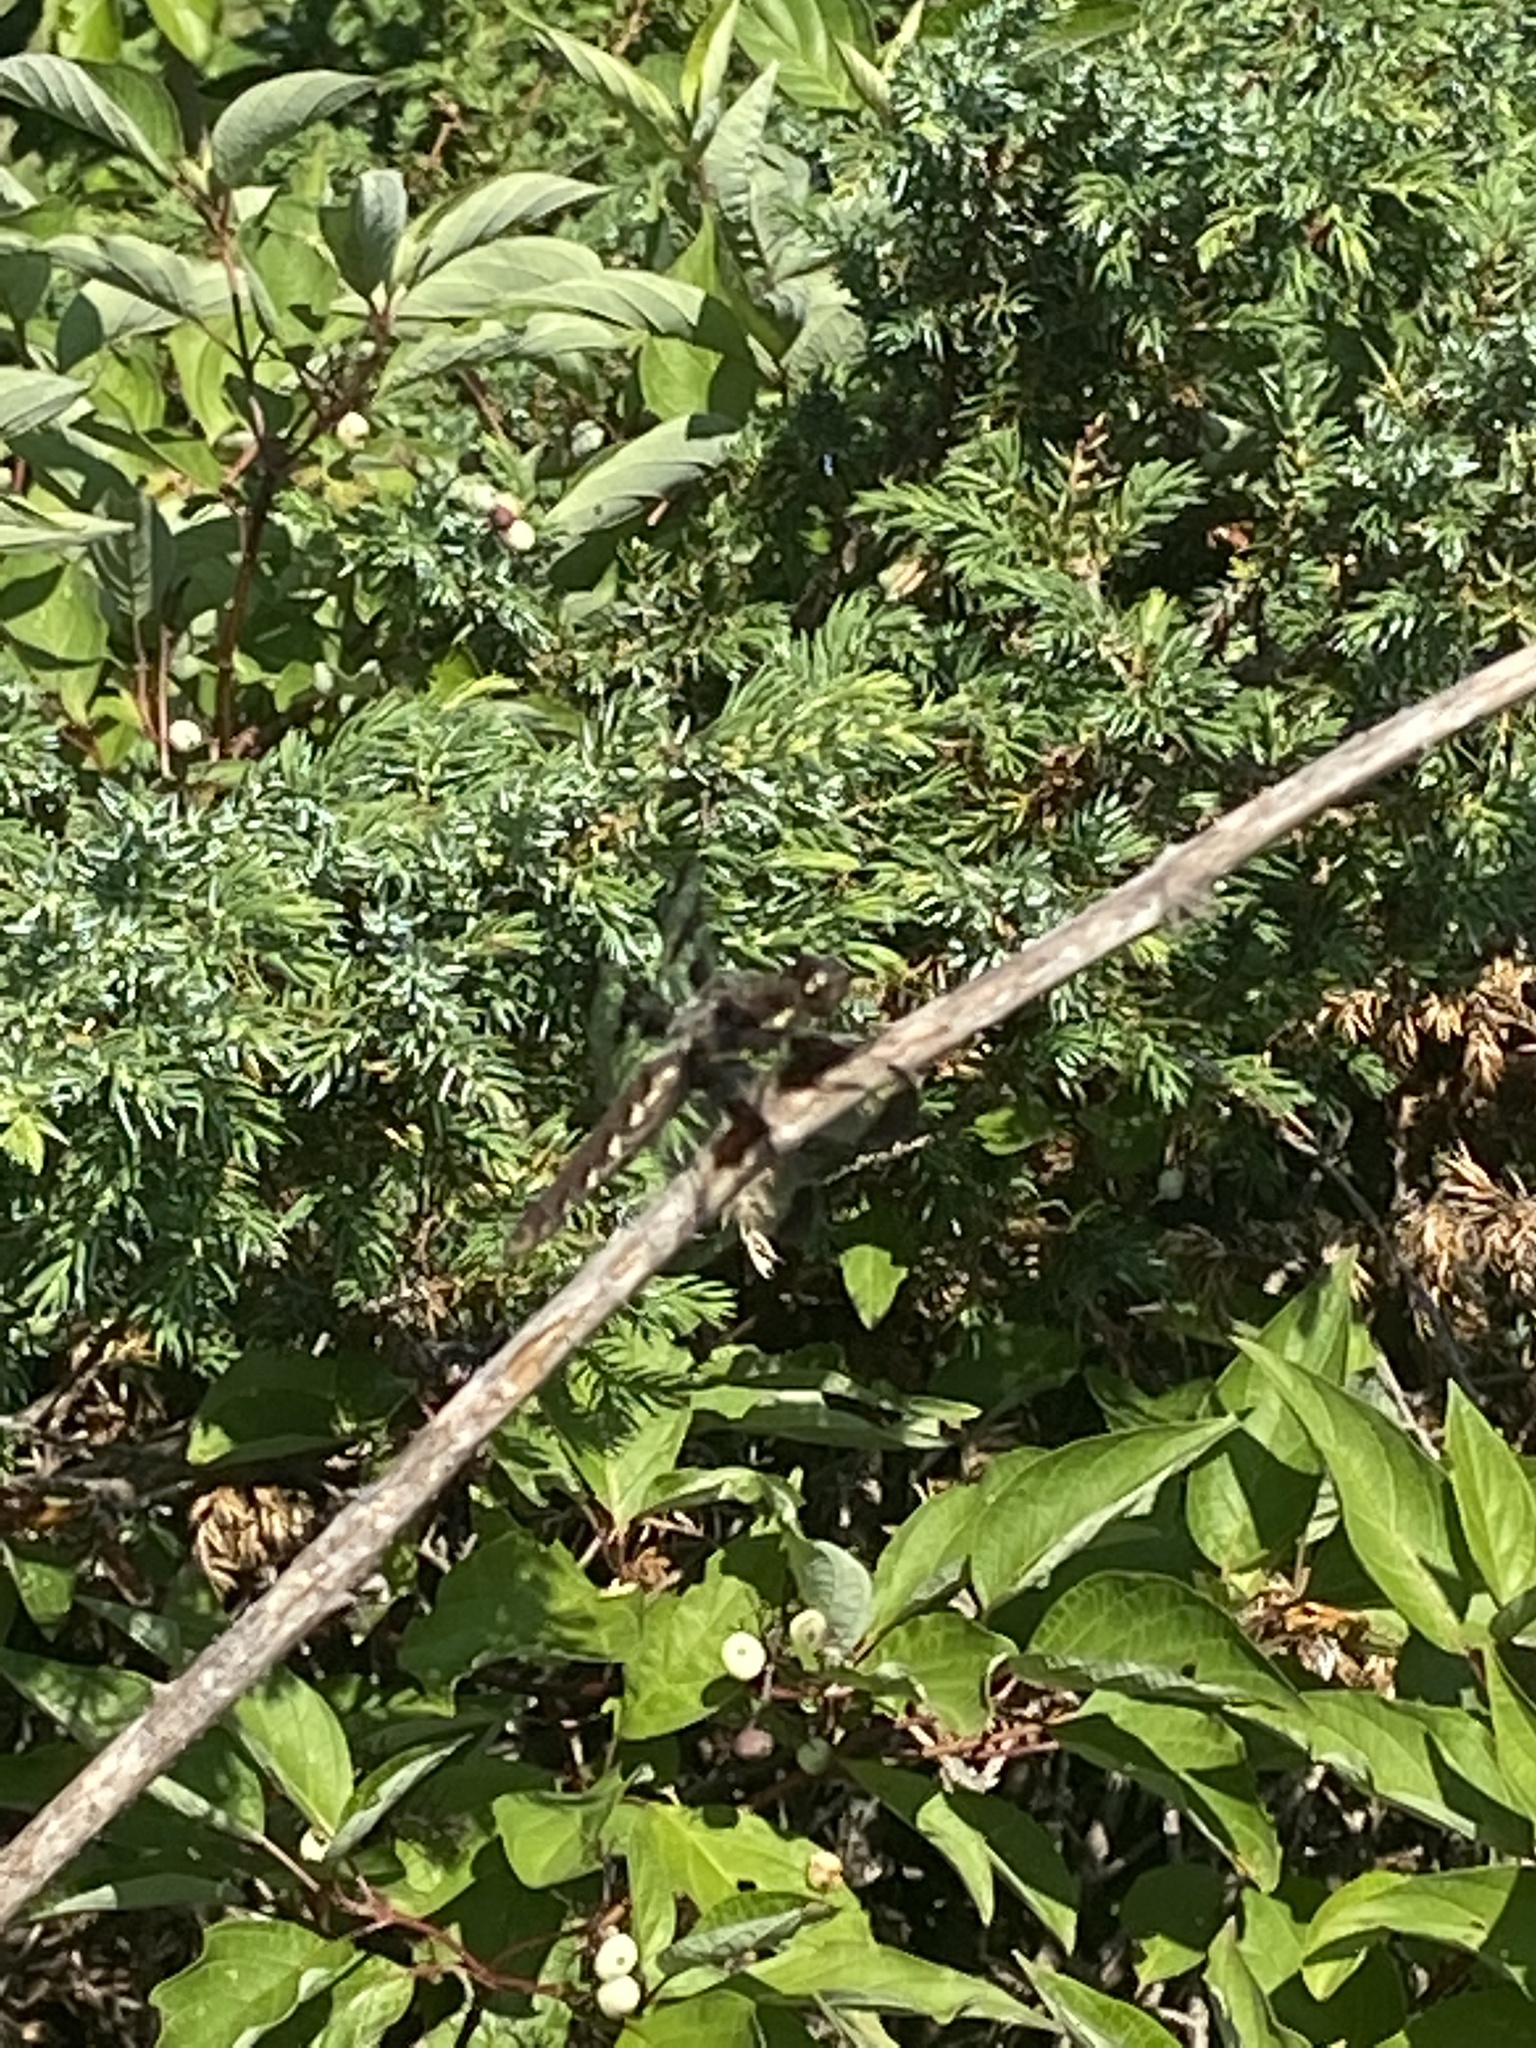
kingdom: Animalia
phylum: Arthropoda
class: Insecta
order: Odonata
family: Libellulidae
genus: Plathemis
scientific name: Plathemis lydia
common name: Common whitetail
